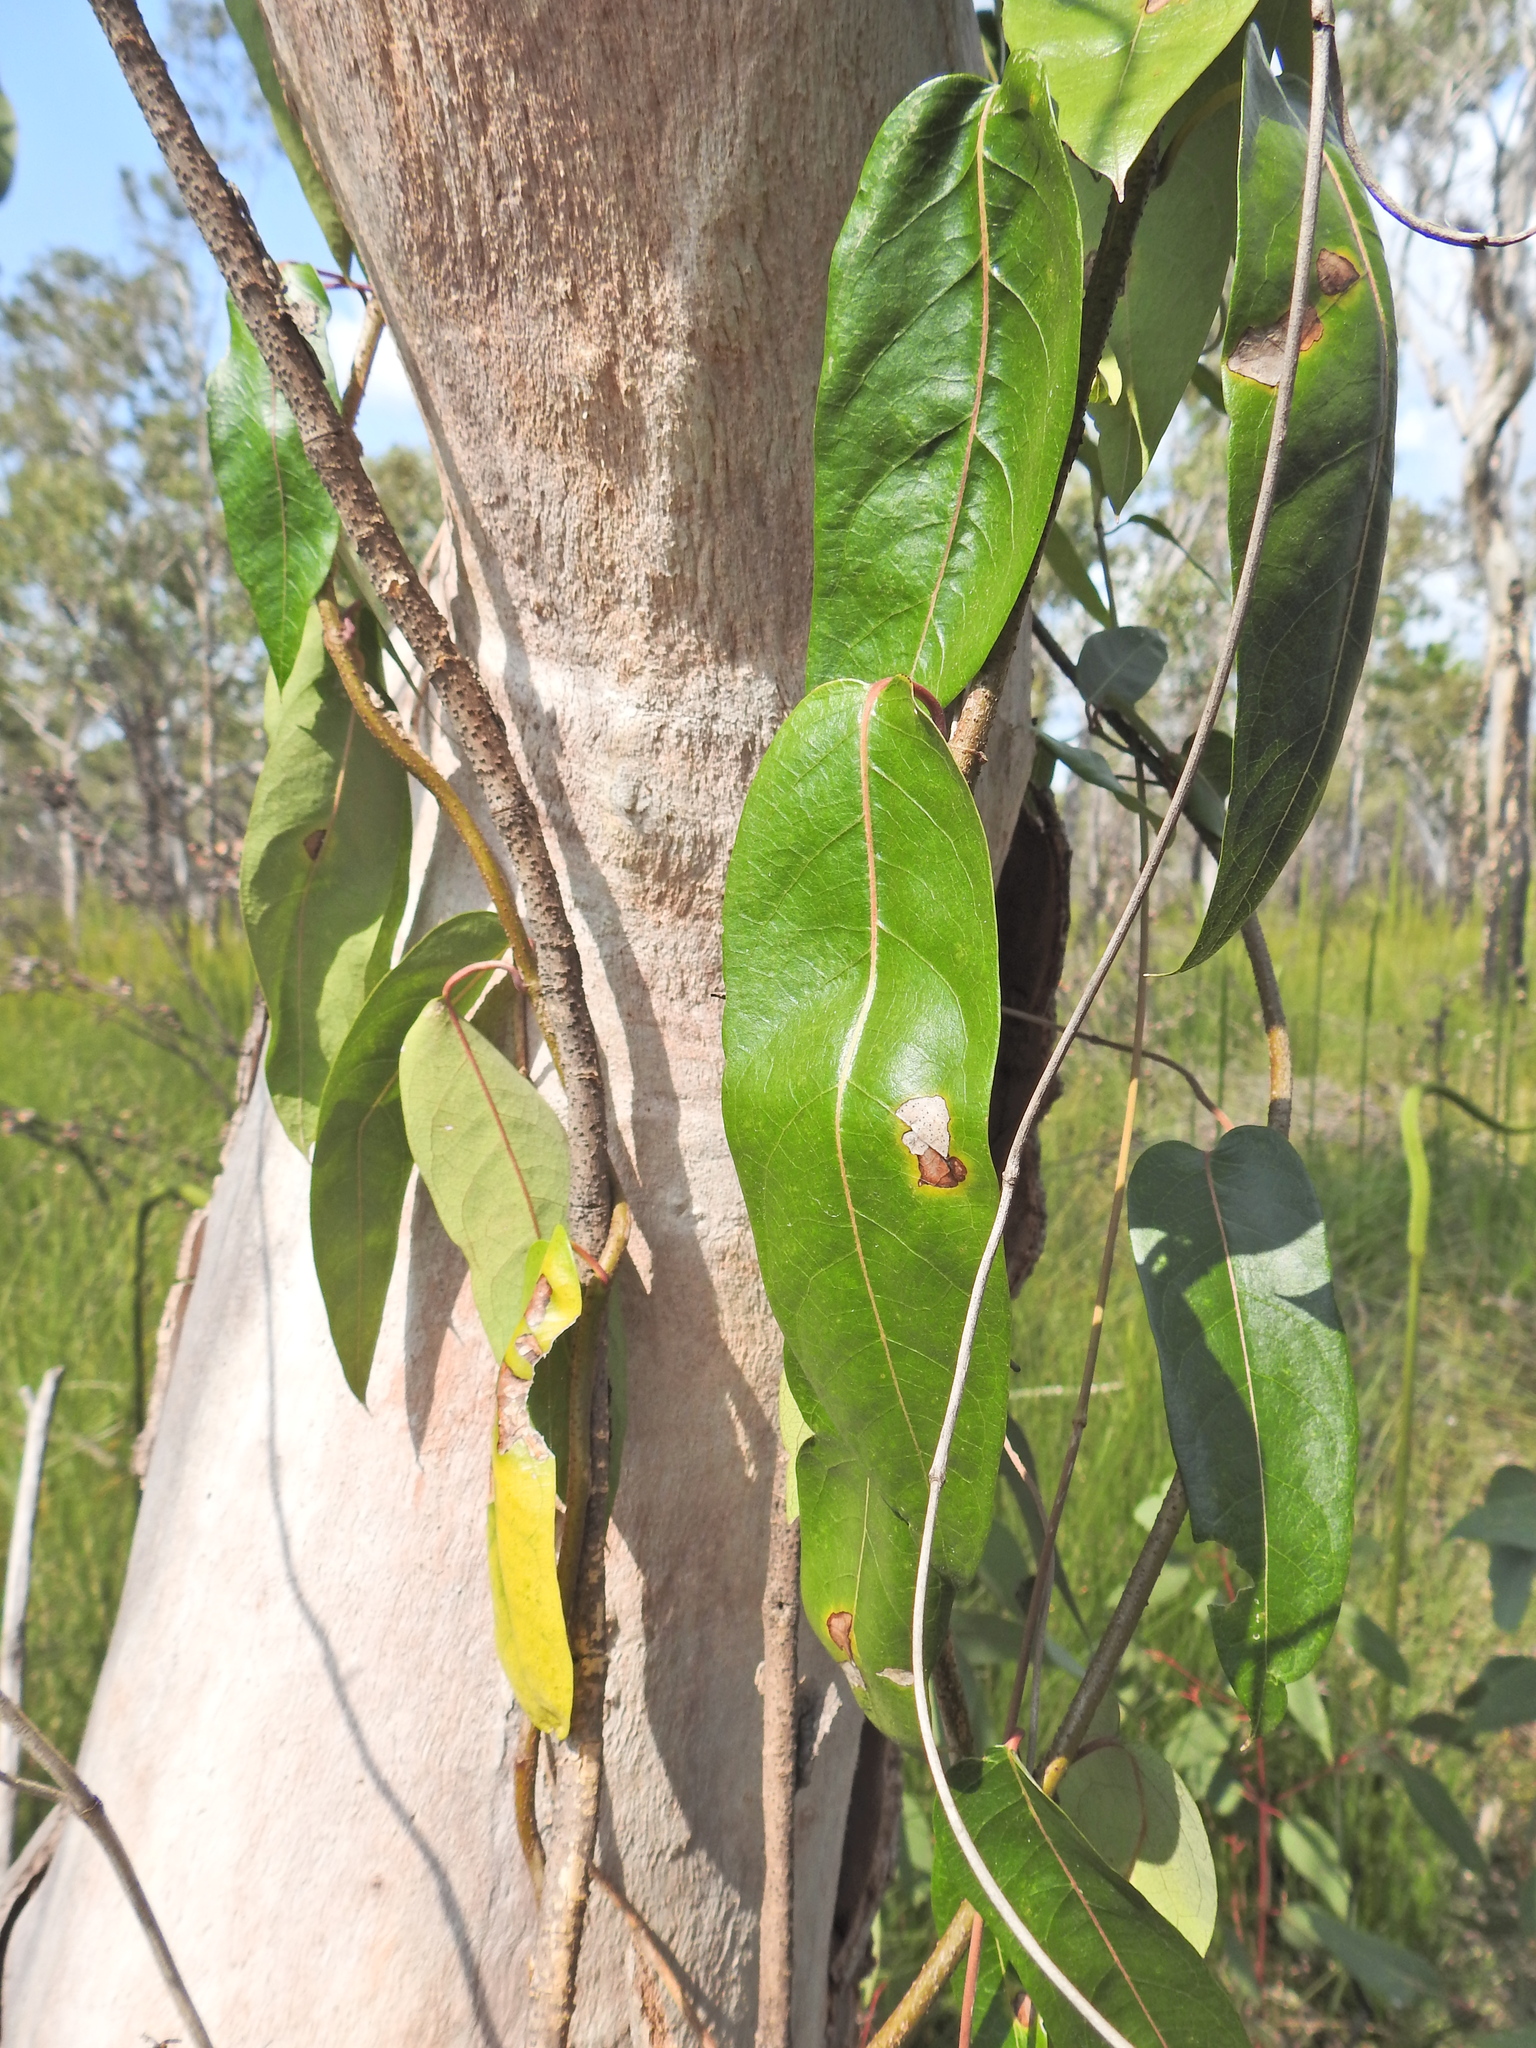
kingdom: Plantae
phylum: Tracheophyta
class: Magnoliopsida
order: Gentianales
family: Apocynaceae
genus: Parsonsia
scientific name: Parsonsia straminea
